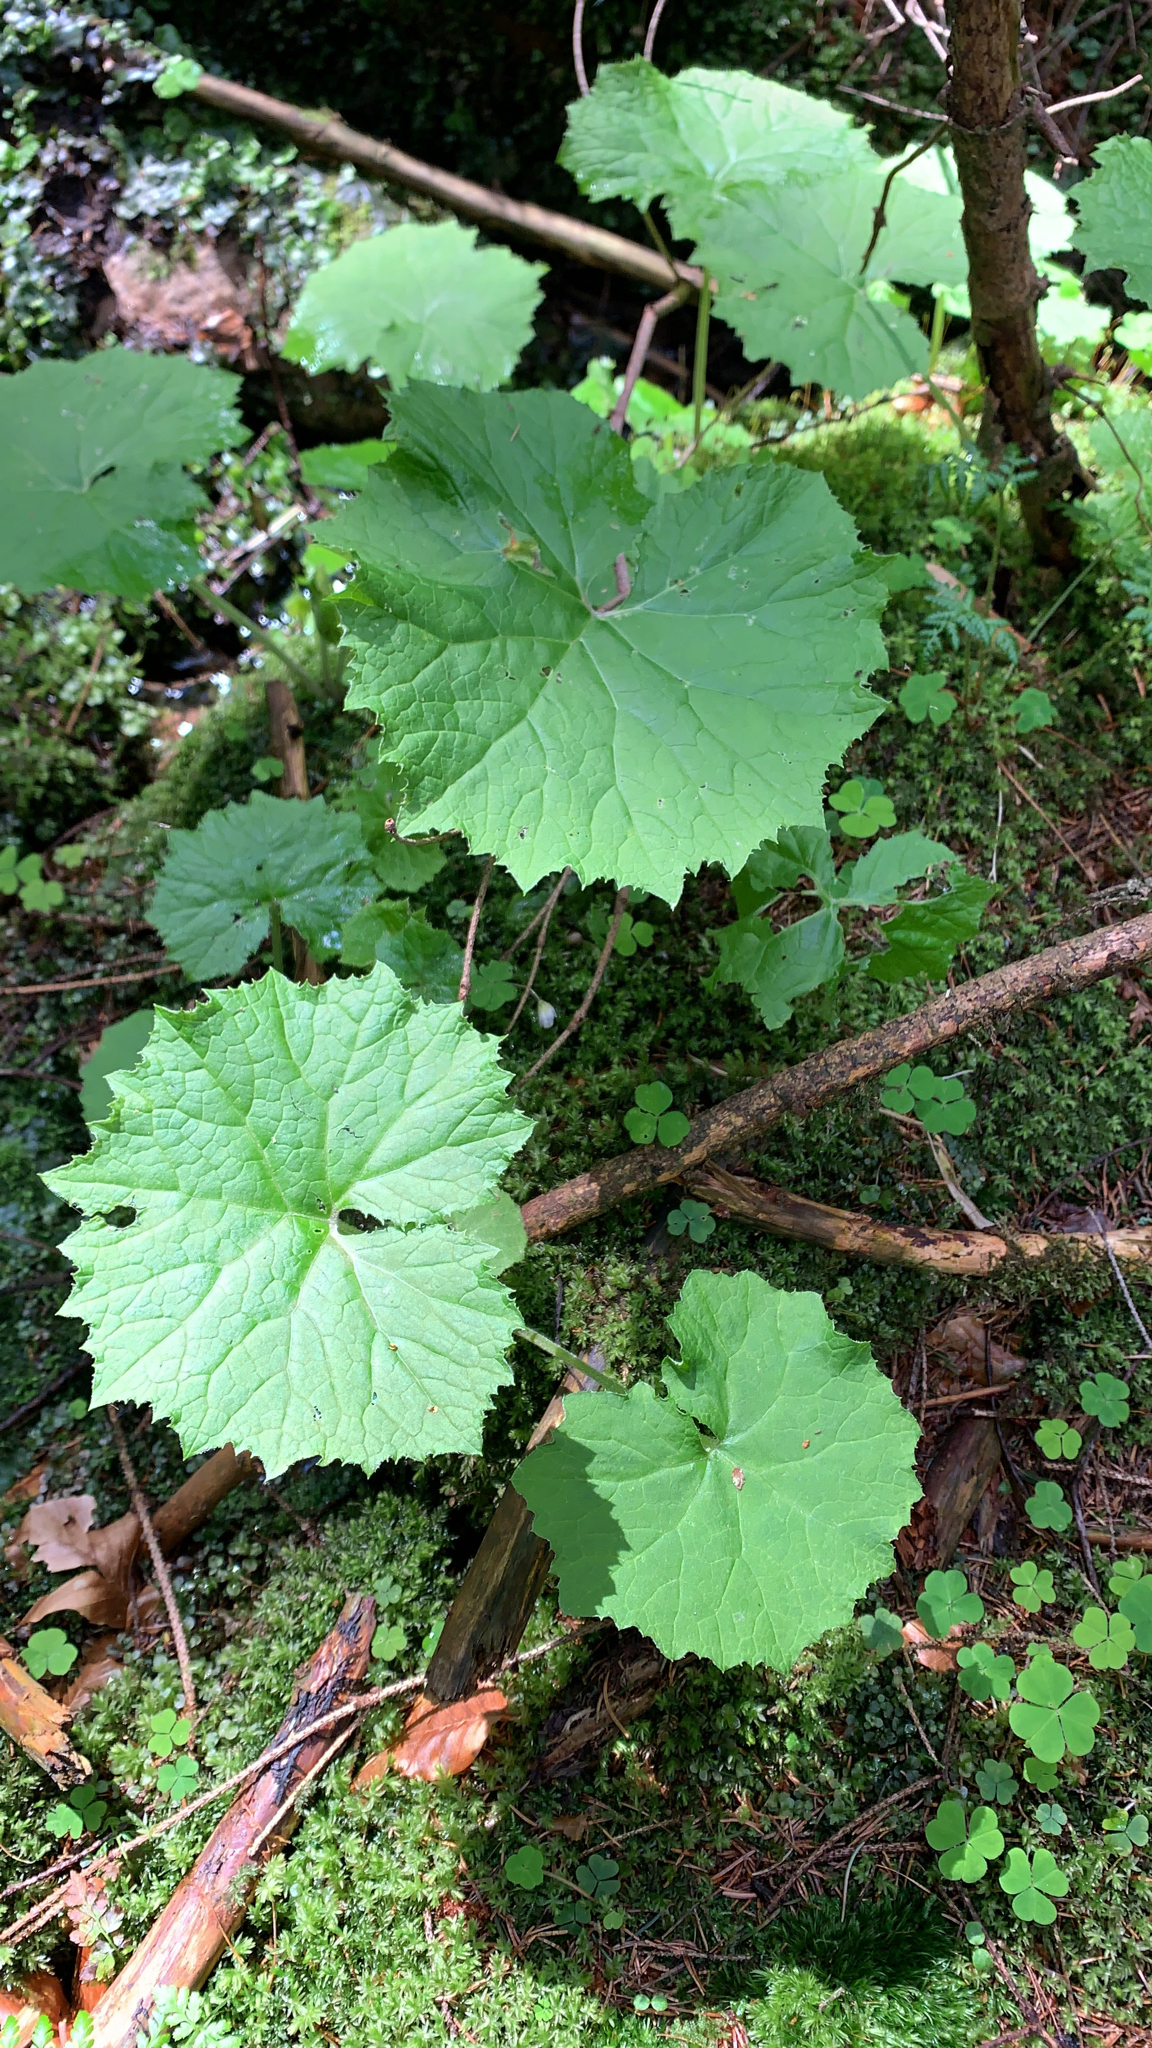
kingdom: Plantae
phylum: Tracheophyta
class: Magnoliopsida
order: Asterales
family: Asteraceae
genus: Petasites
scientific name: Petasites albus
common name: White butterbur
